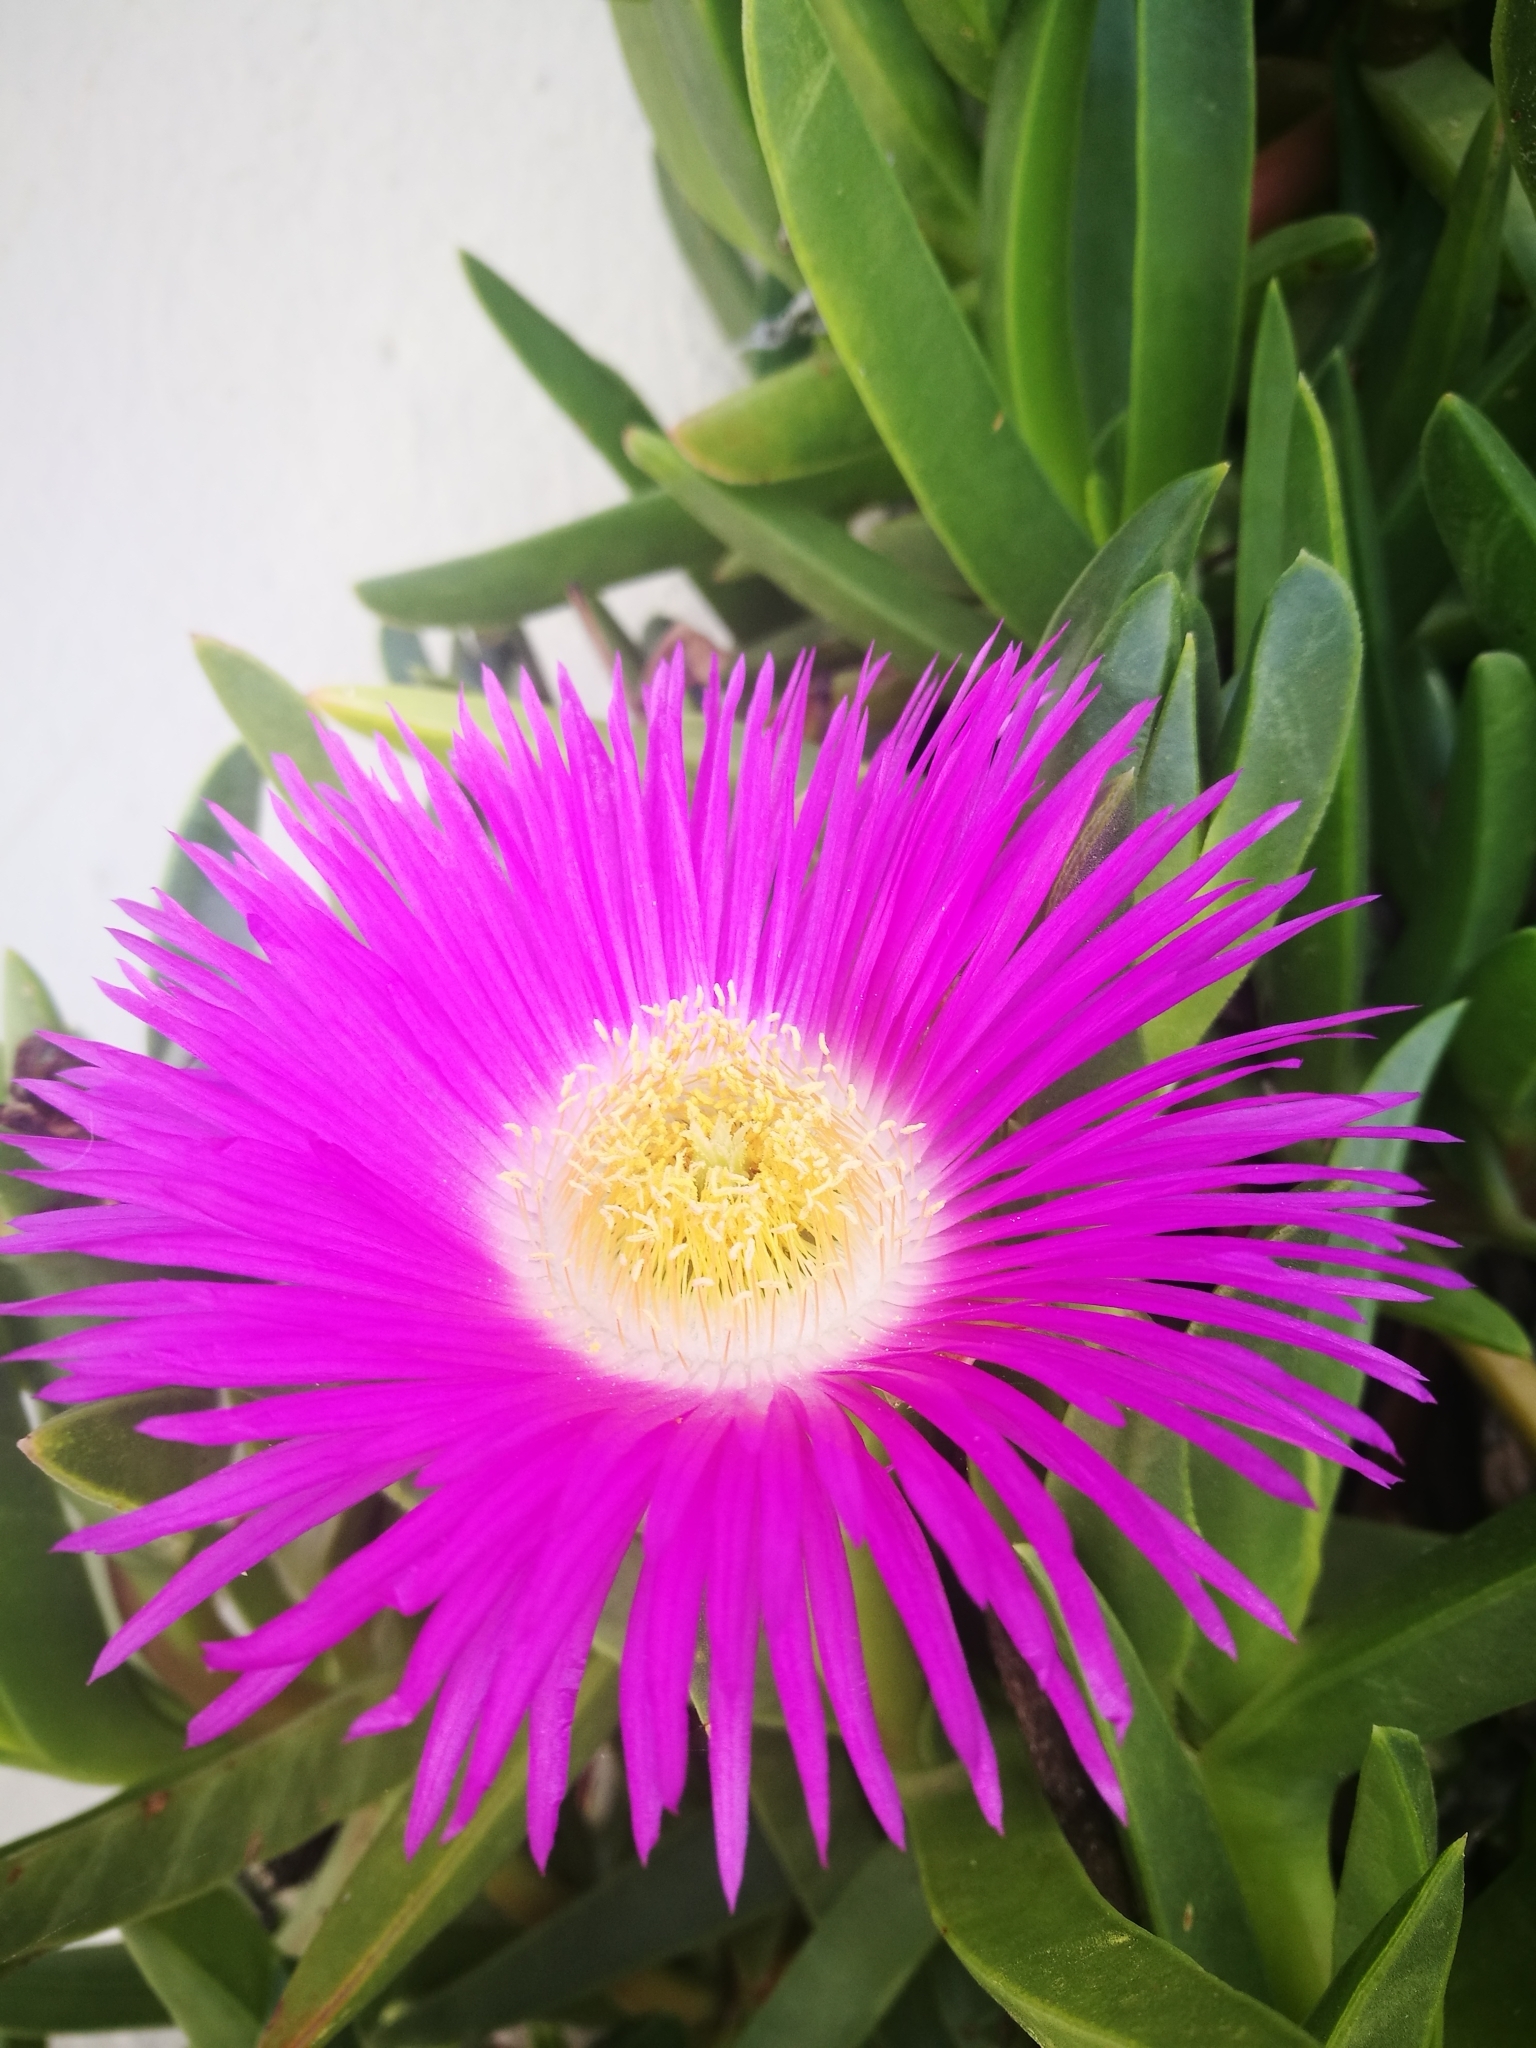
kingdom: Plantae
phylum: Tracheophyta
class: Magnoliopsida
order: Caryophyllales
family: Aizoaceae
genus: Carpobrotus
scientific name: Carpobrotus acinaciformis
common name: Sally-my-handsome
